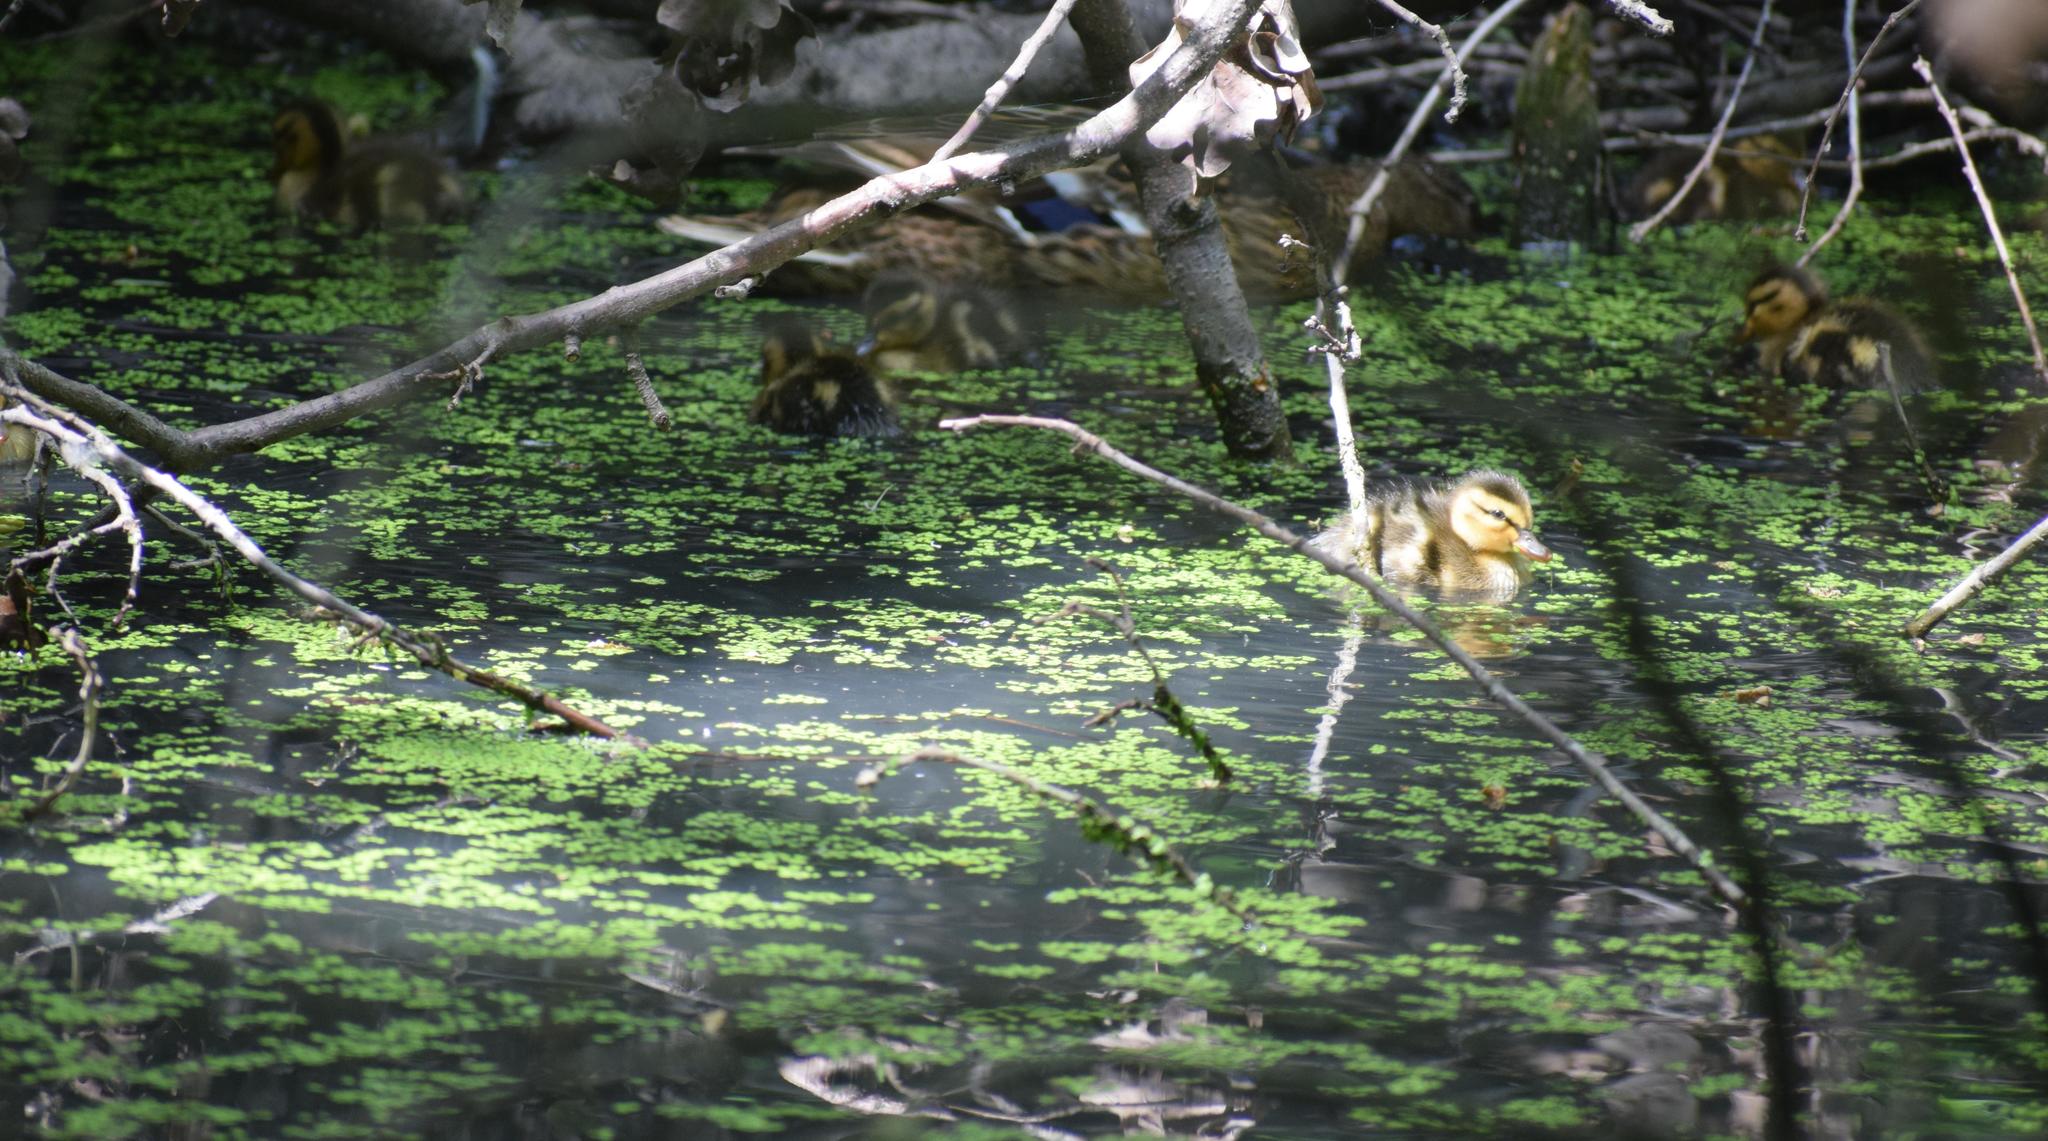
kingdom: Animalia
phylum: Chordata
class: Aves
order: Anseriformes
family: Anatidae
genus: Anas
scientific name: Anas platyrhynchos
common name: Mallard
